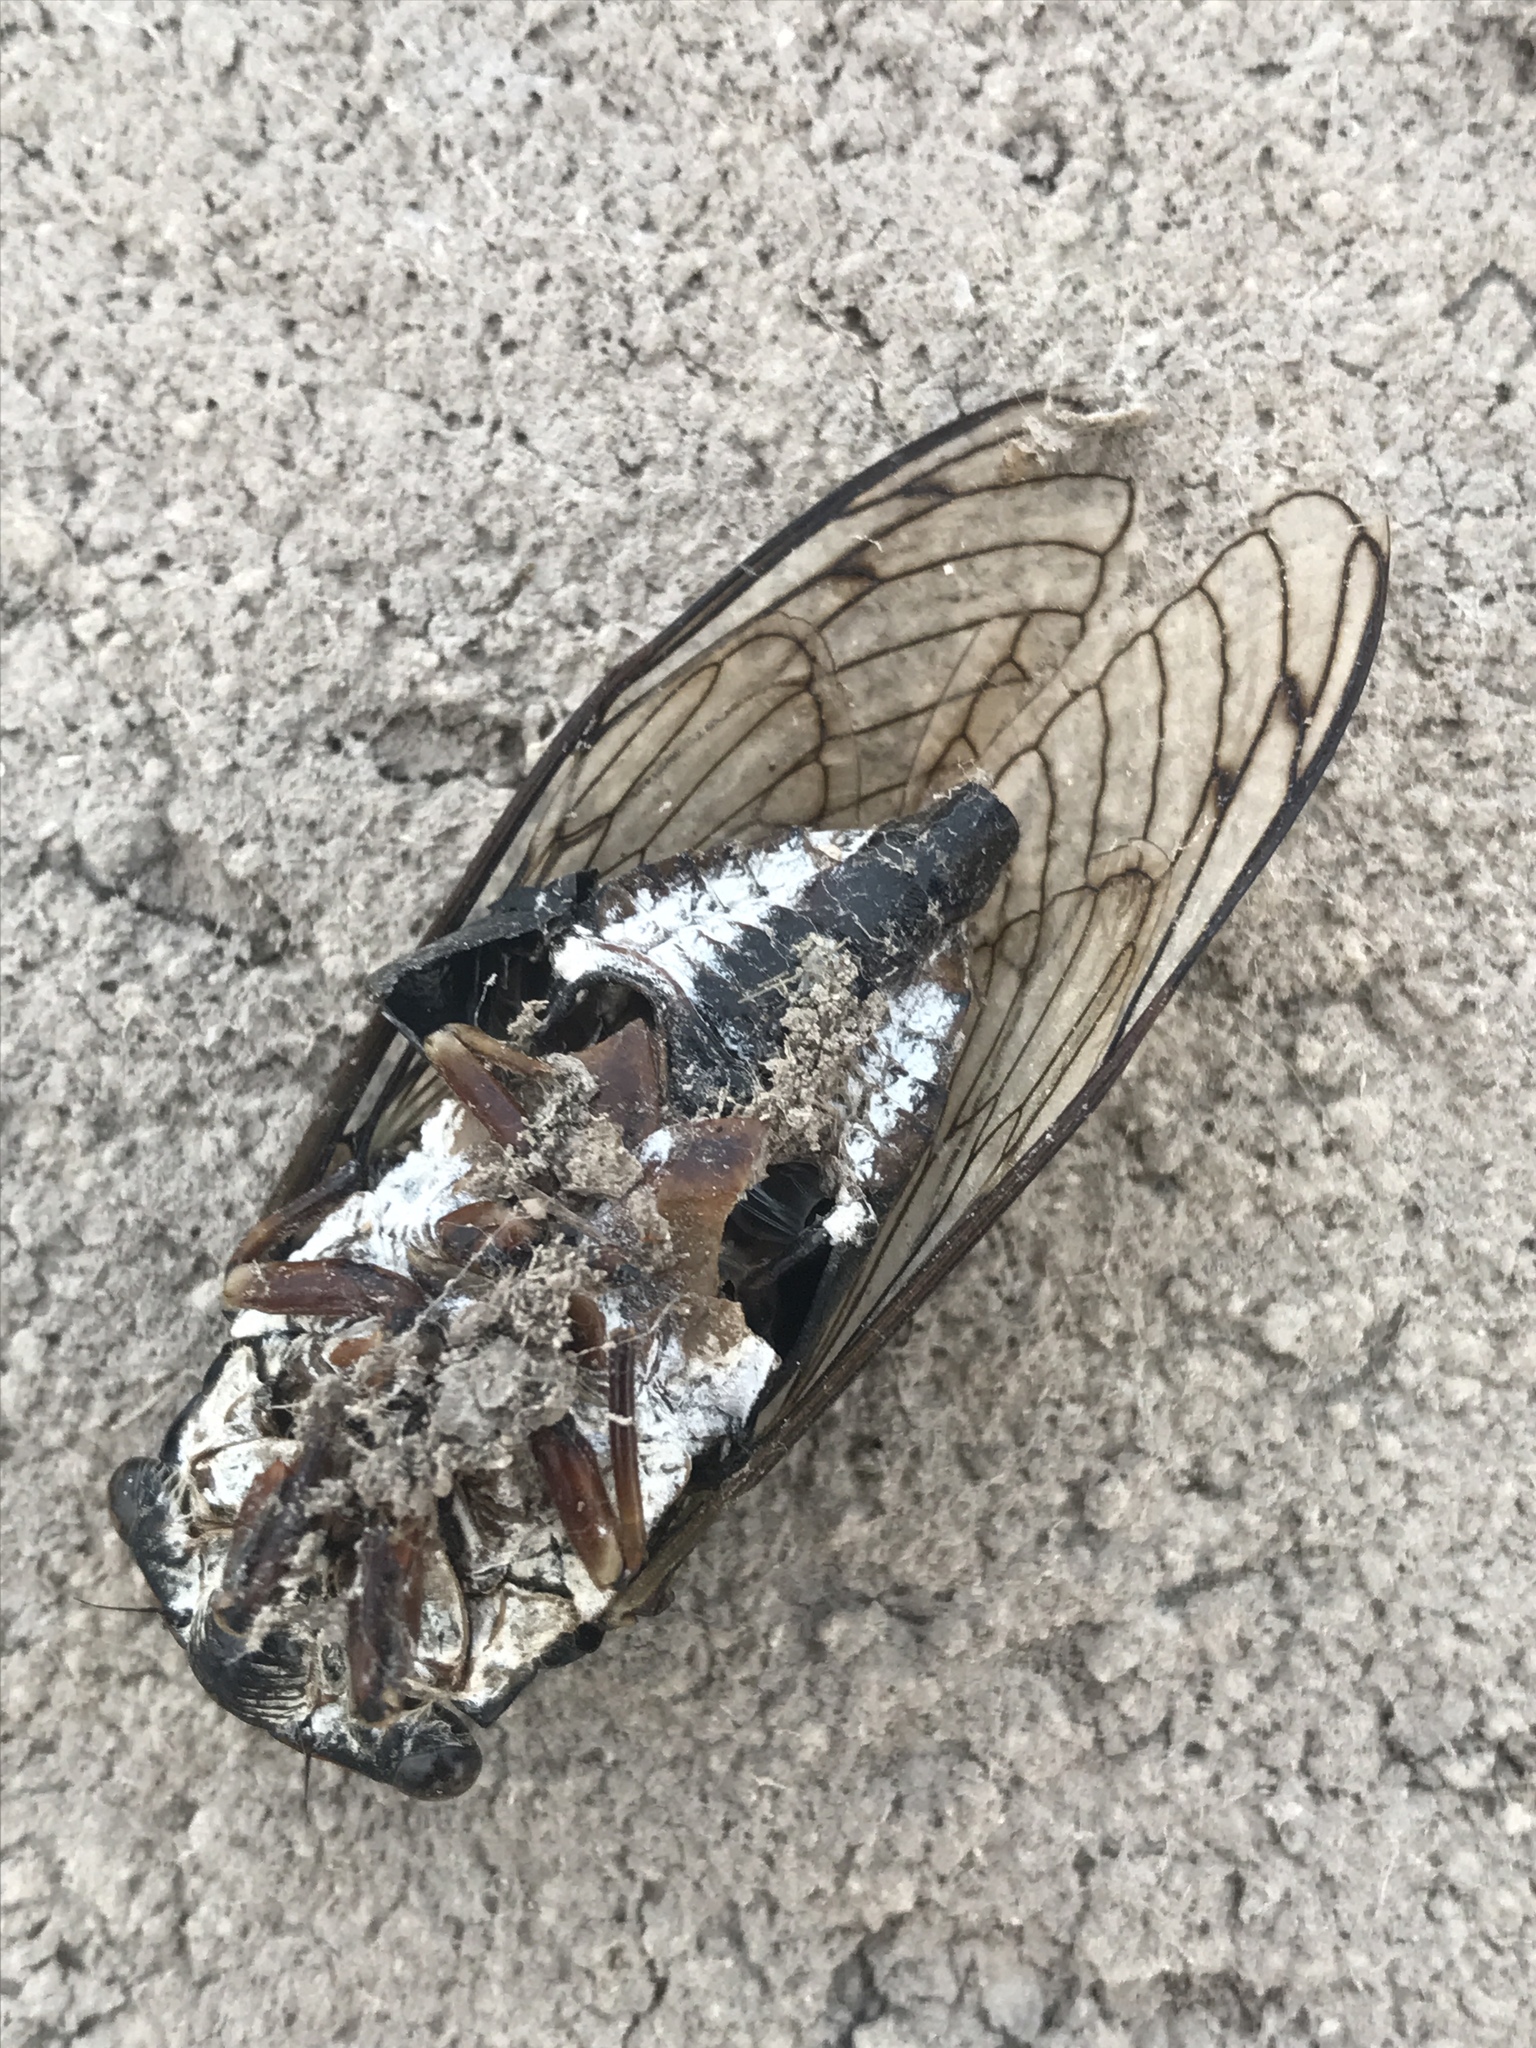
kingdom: Animalia
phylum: Arthropoda
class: Insecta
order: Hemiptera
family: Cicadidae
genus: Neotibicen
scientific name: Neotibicen lyricen
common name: Lyric cicada
